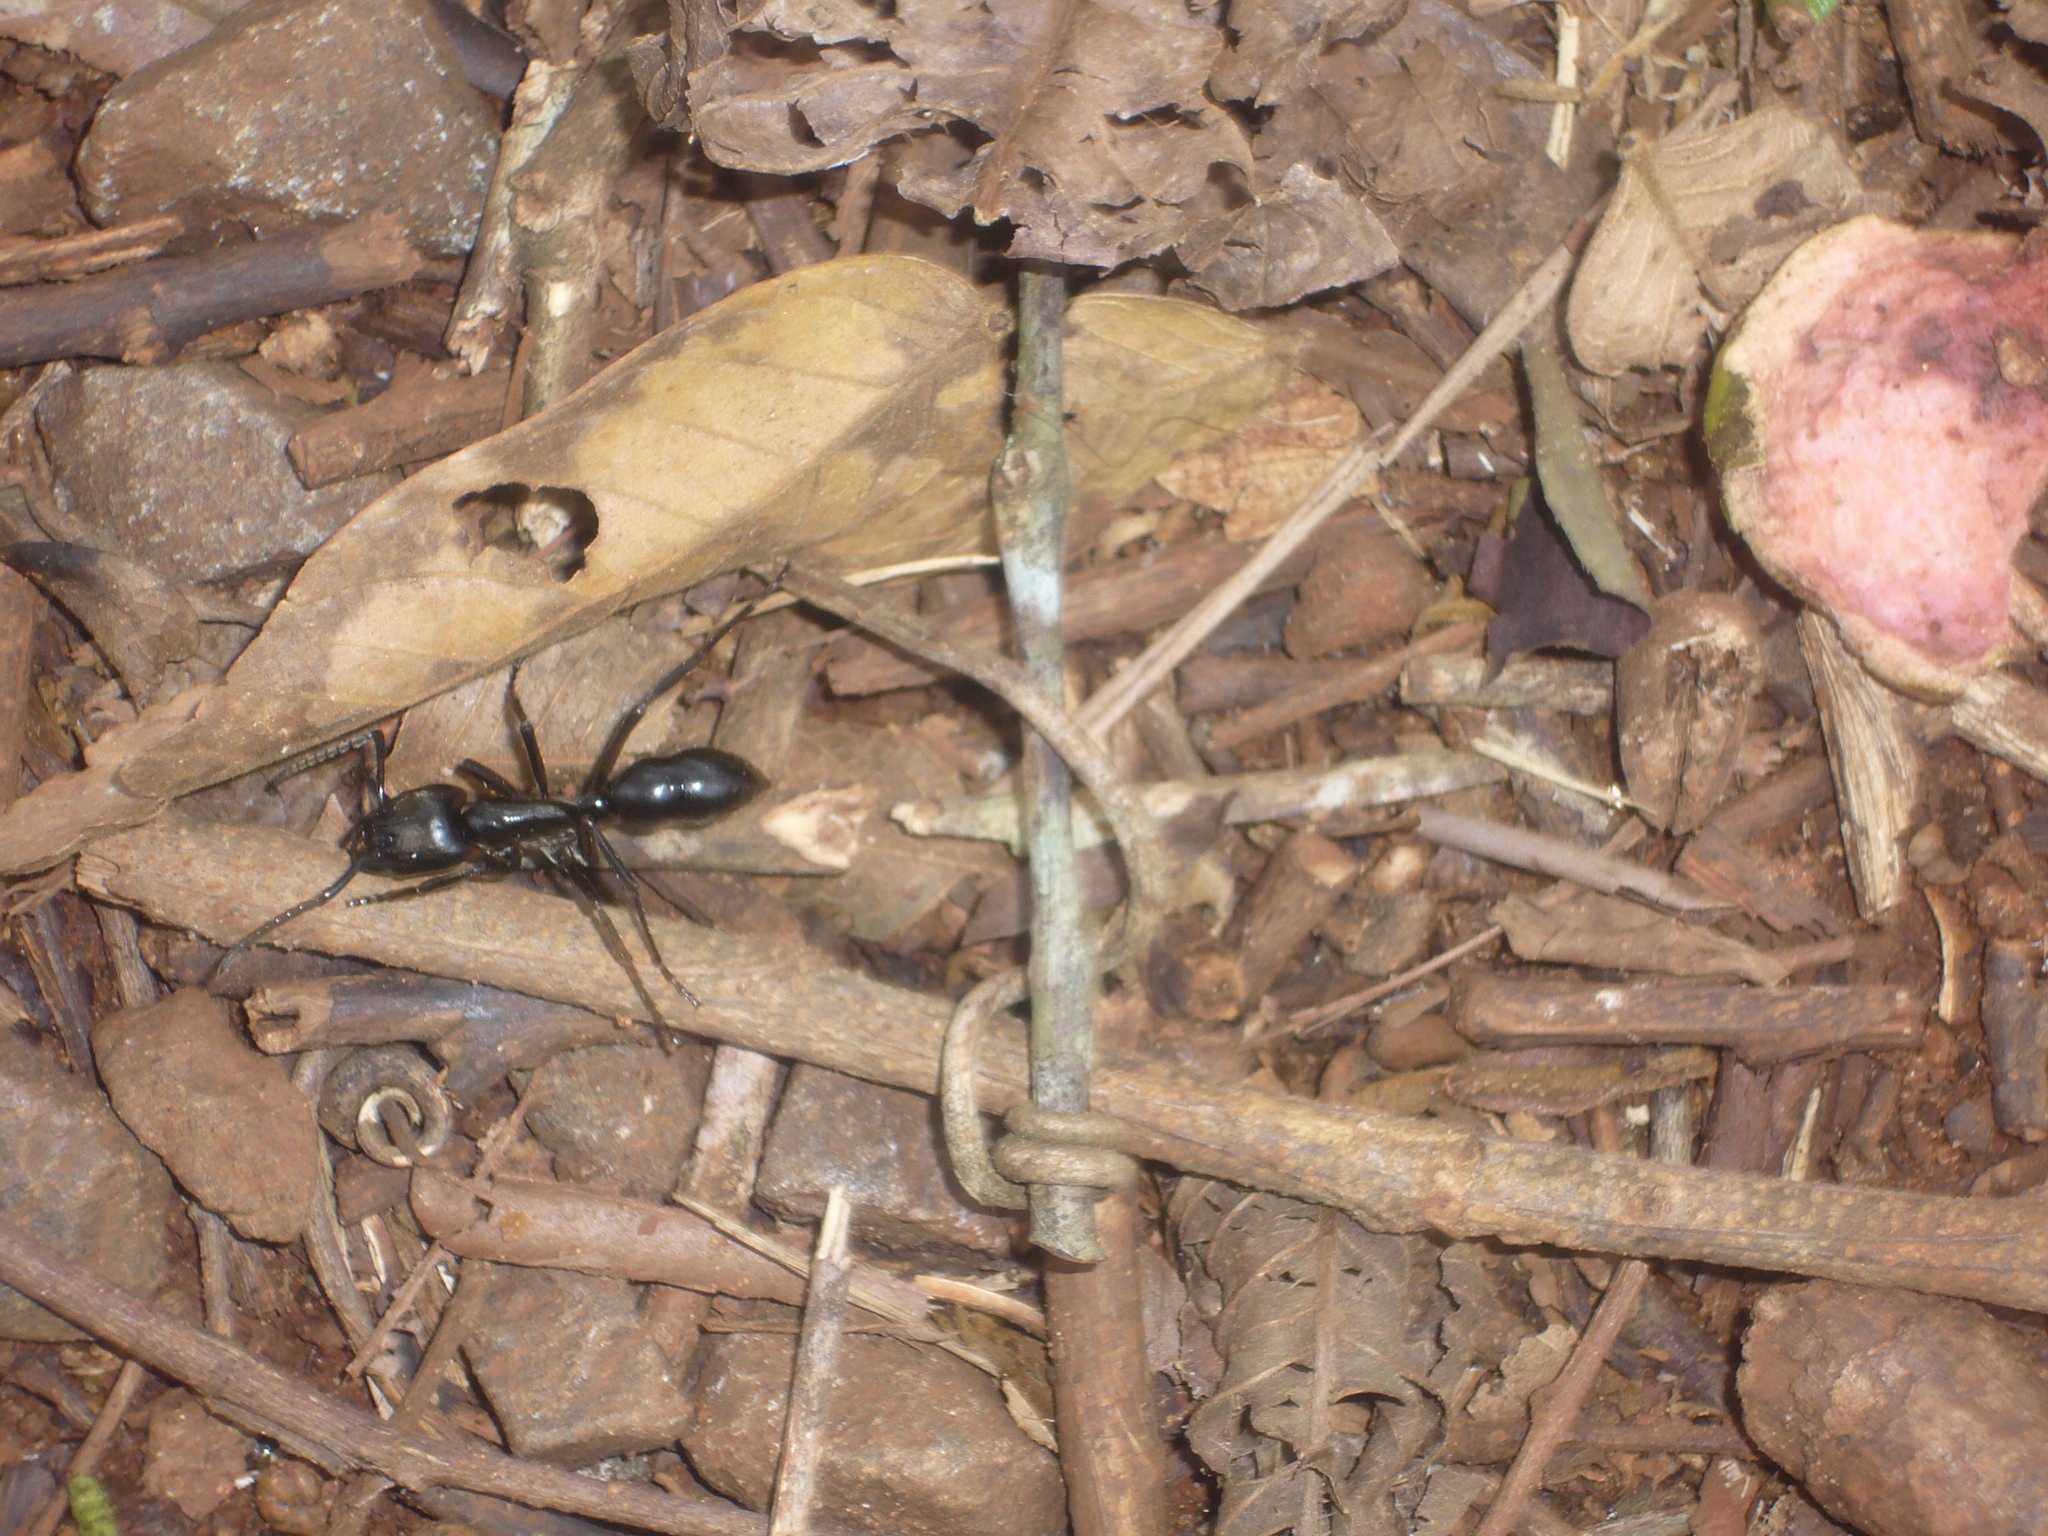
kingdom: Animalia
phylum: Arthropoda
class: Insecta
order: Hymenoptera
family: Formicidae
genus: Dinoponera
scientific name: Dinoponera grandis
